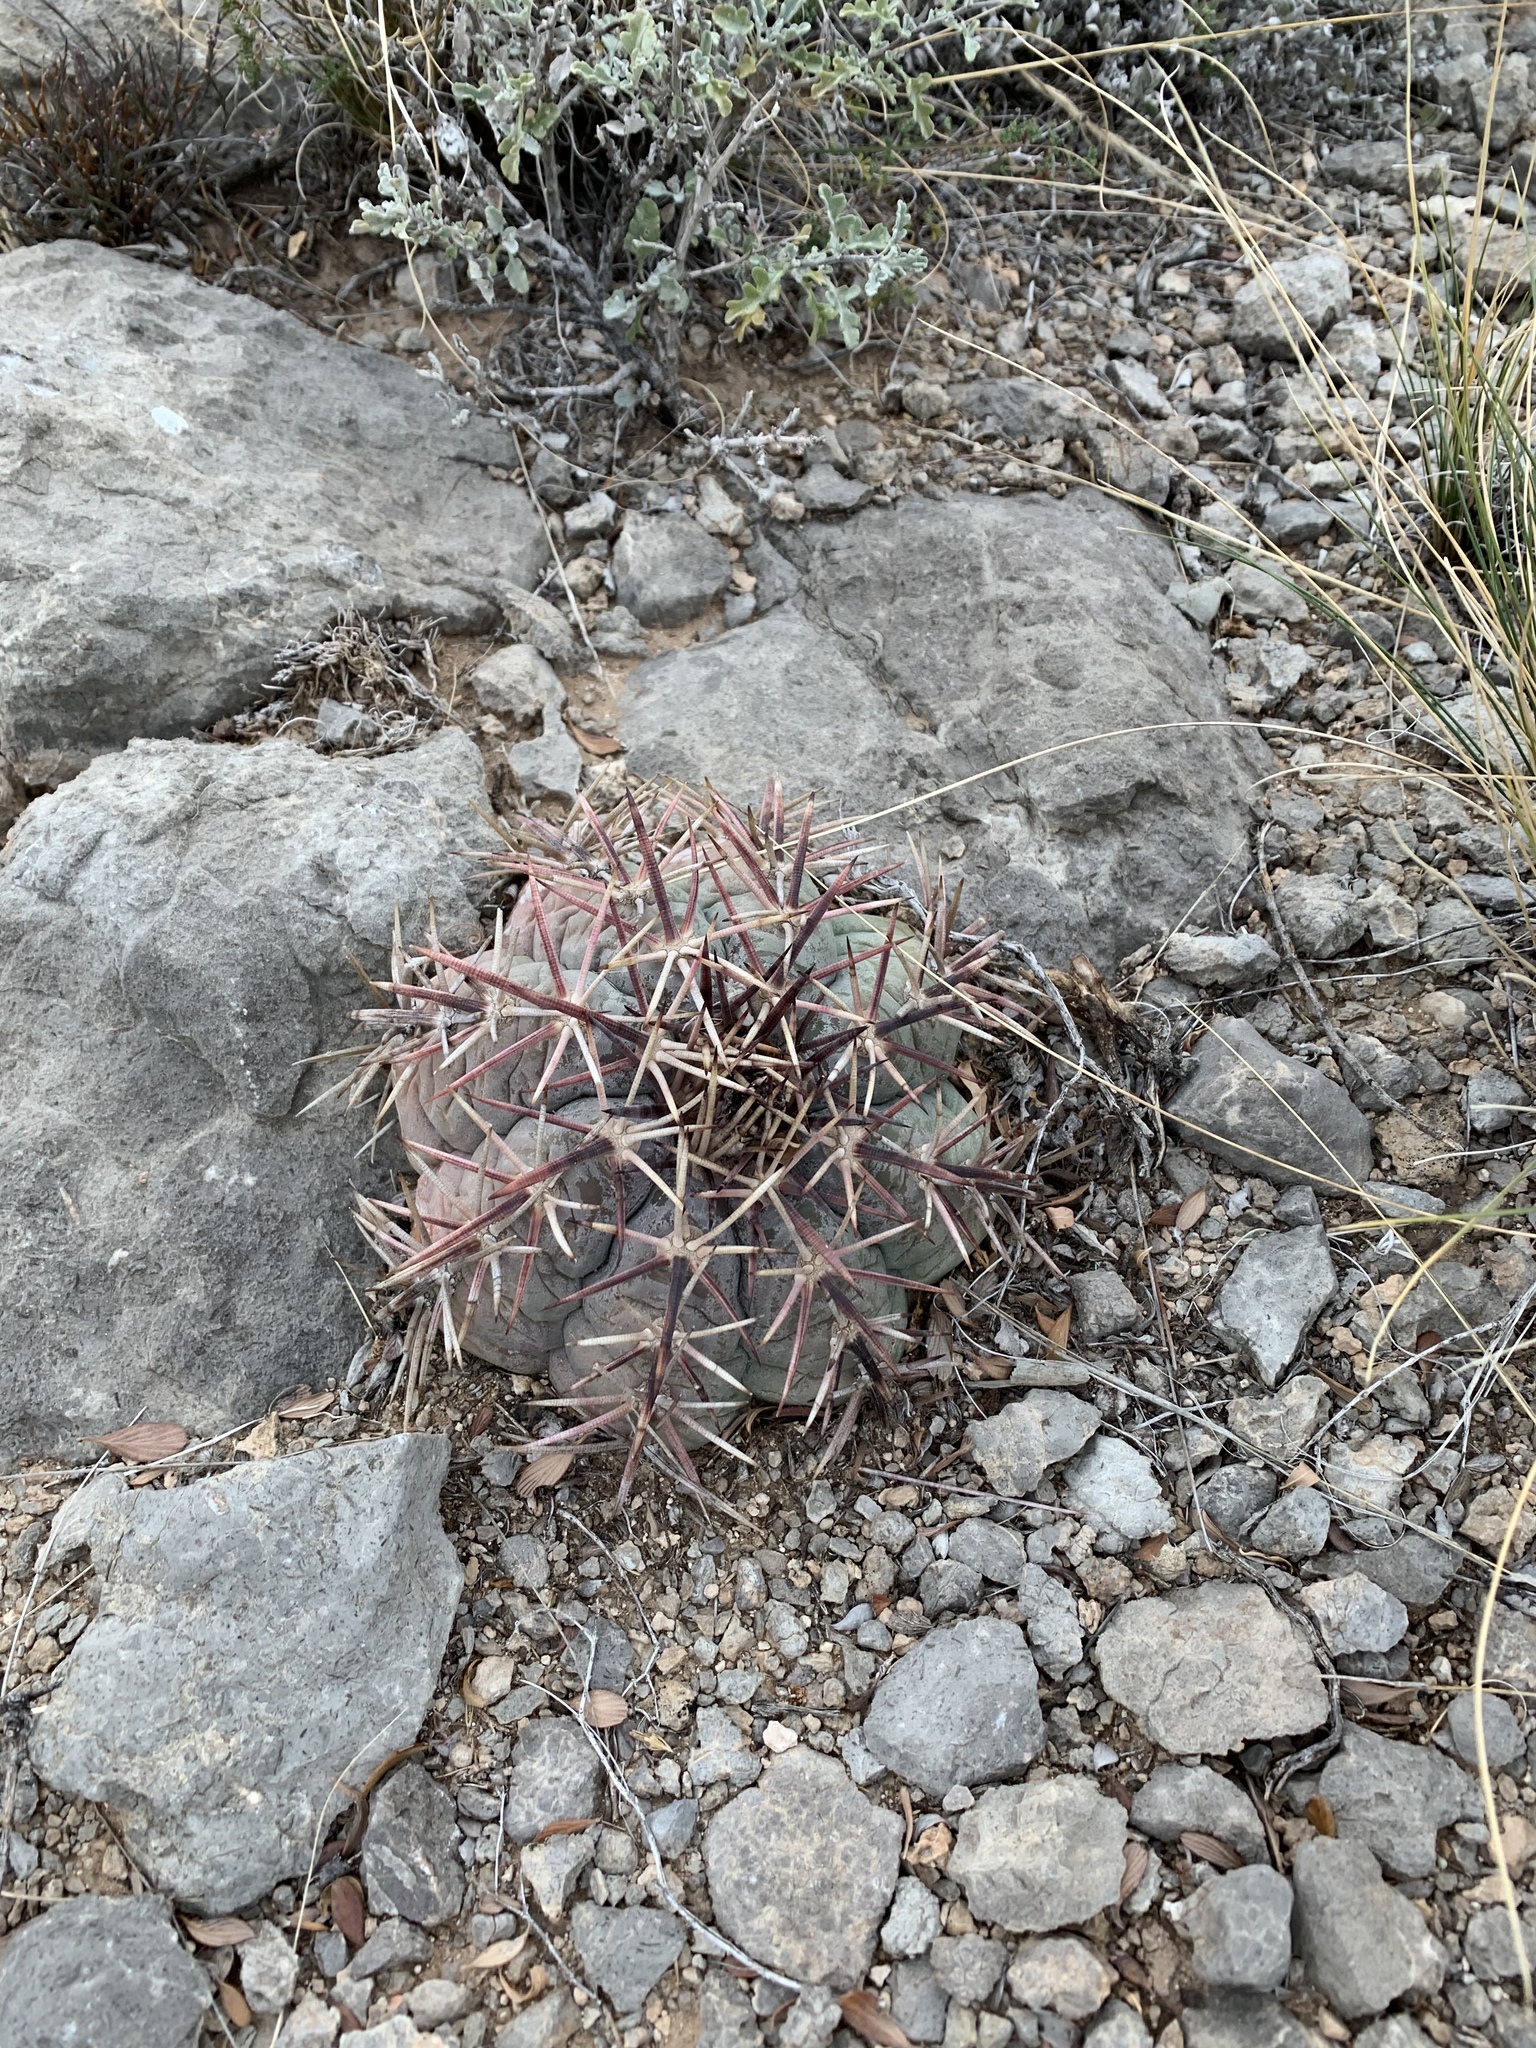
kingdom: Plantae
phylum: Tracheophyta
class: Magnoliopsida
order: Caryophyllales
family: Cactaceae
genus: Echinocactus
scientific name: Echinocactus horizonthalonius
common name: Devilshead
